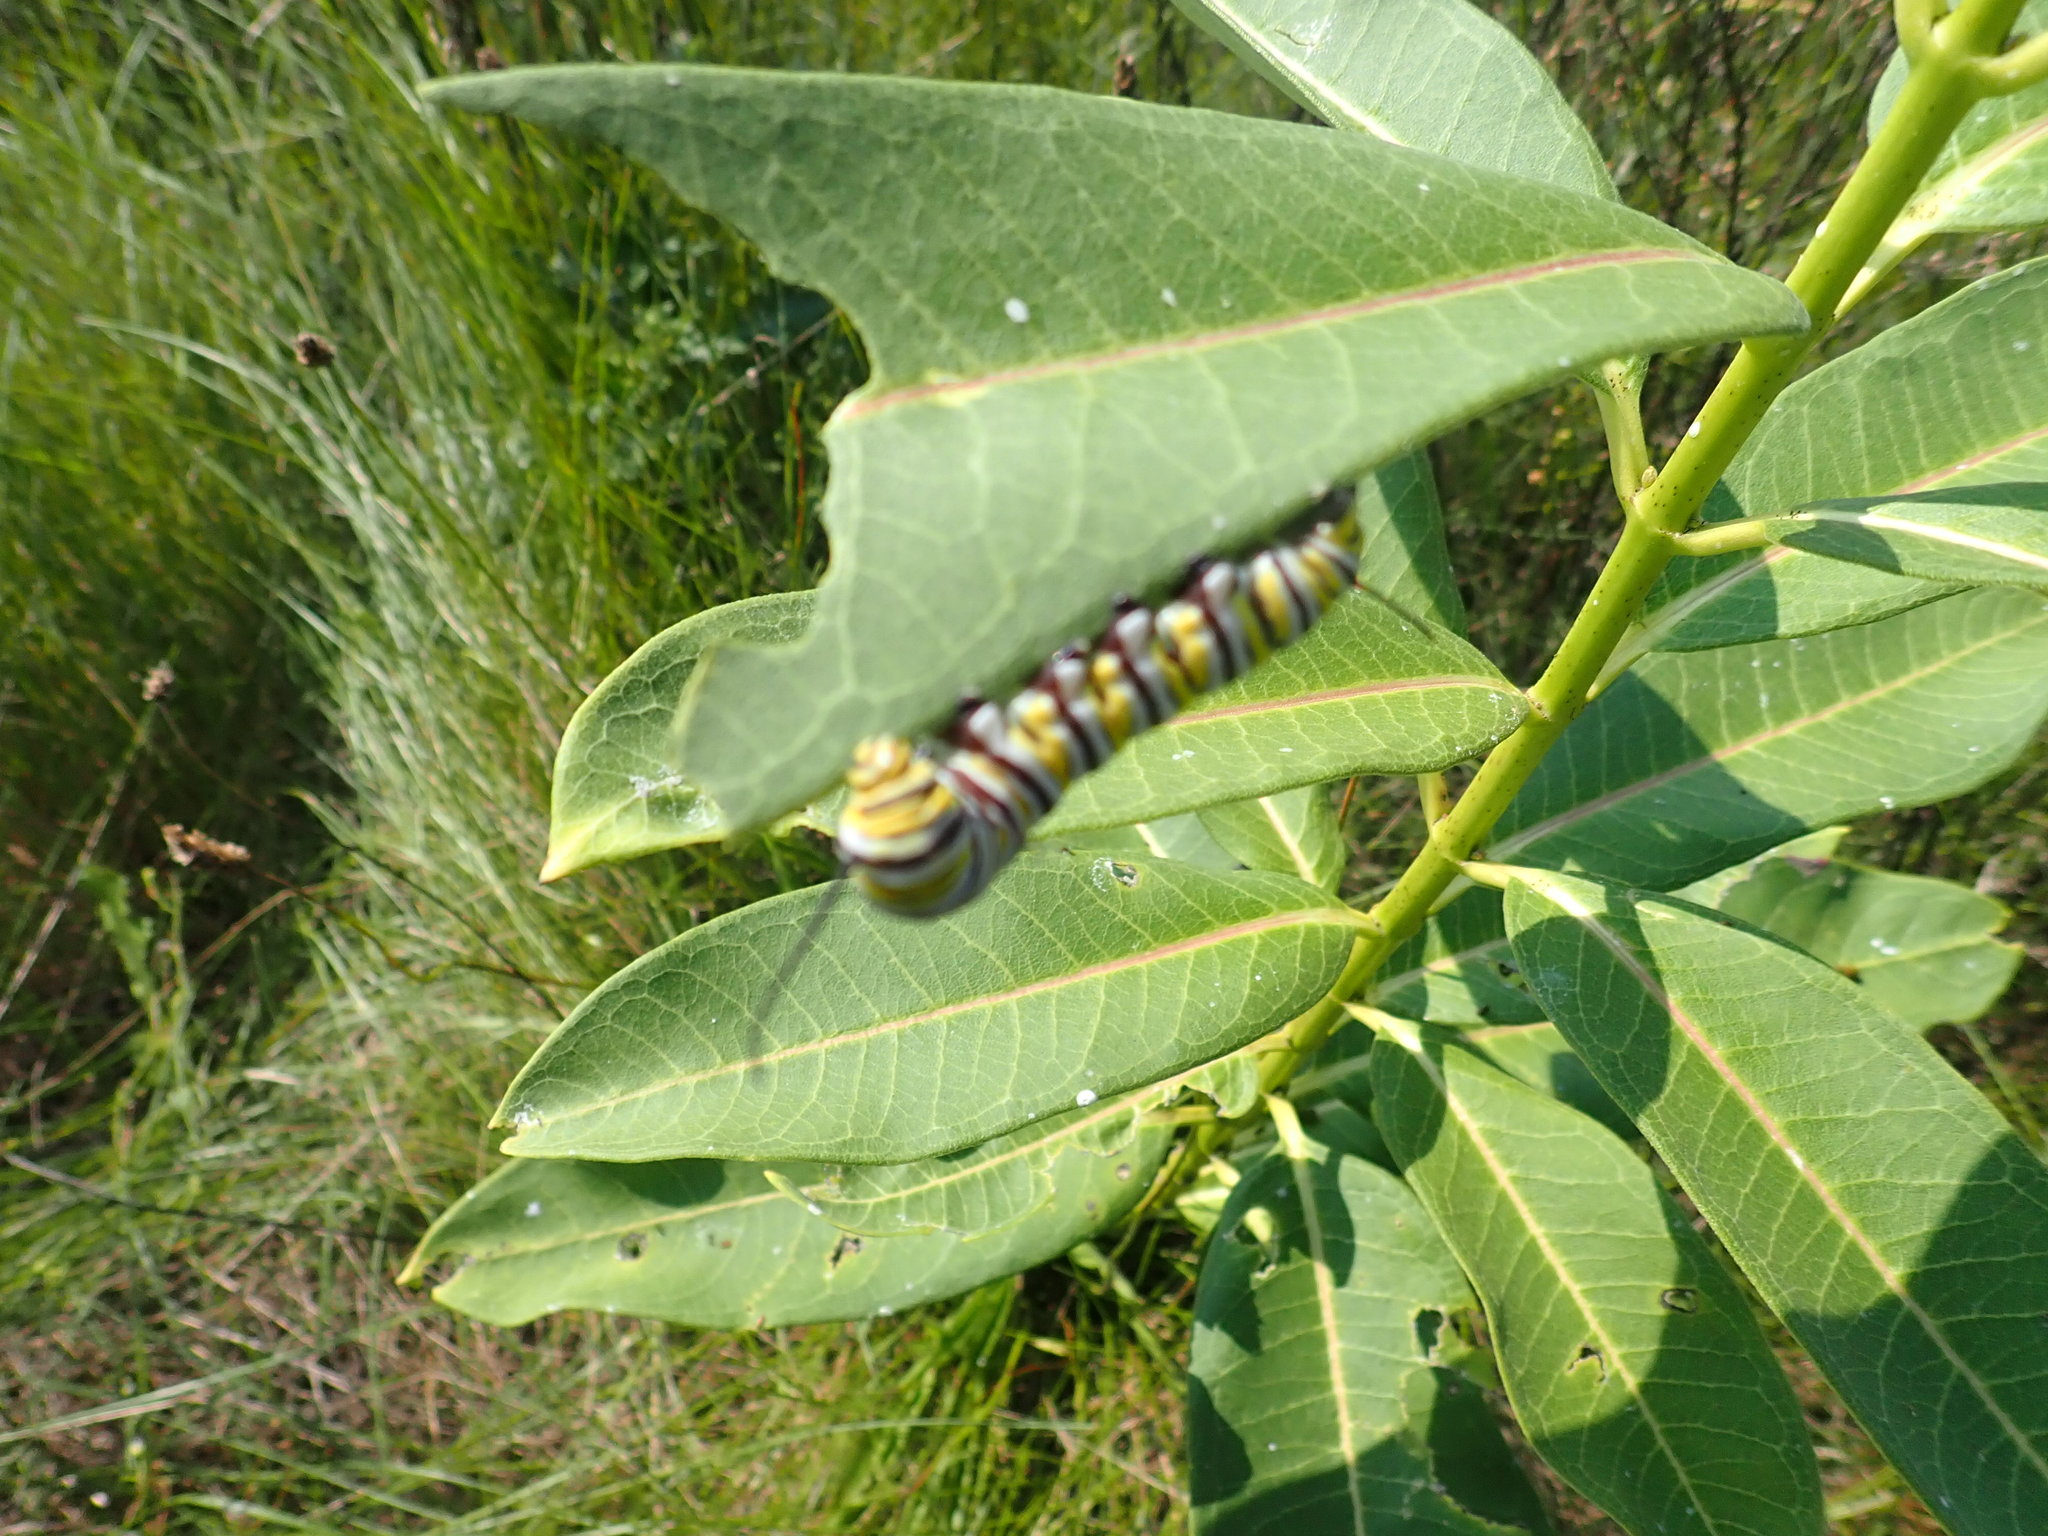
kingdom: Animalia
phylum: Arthropoda
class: Insecta
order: Lepidoptera
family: Nymphalidae
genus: Danaus
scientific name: Danaus plexippus
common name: Monarch
